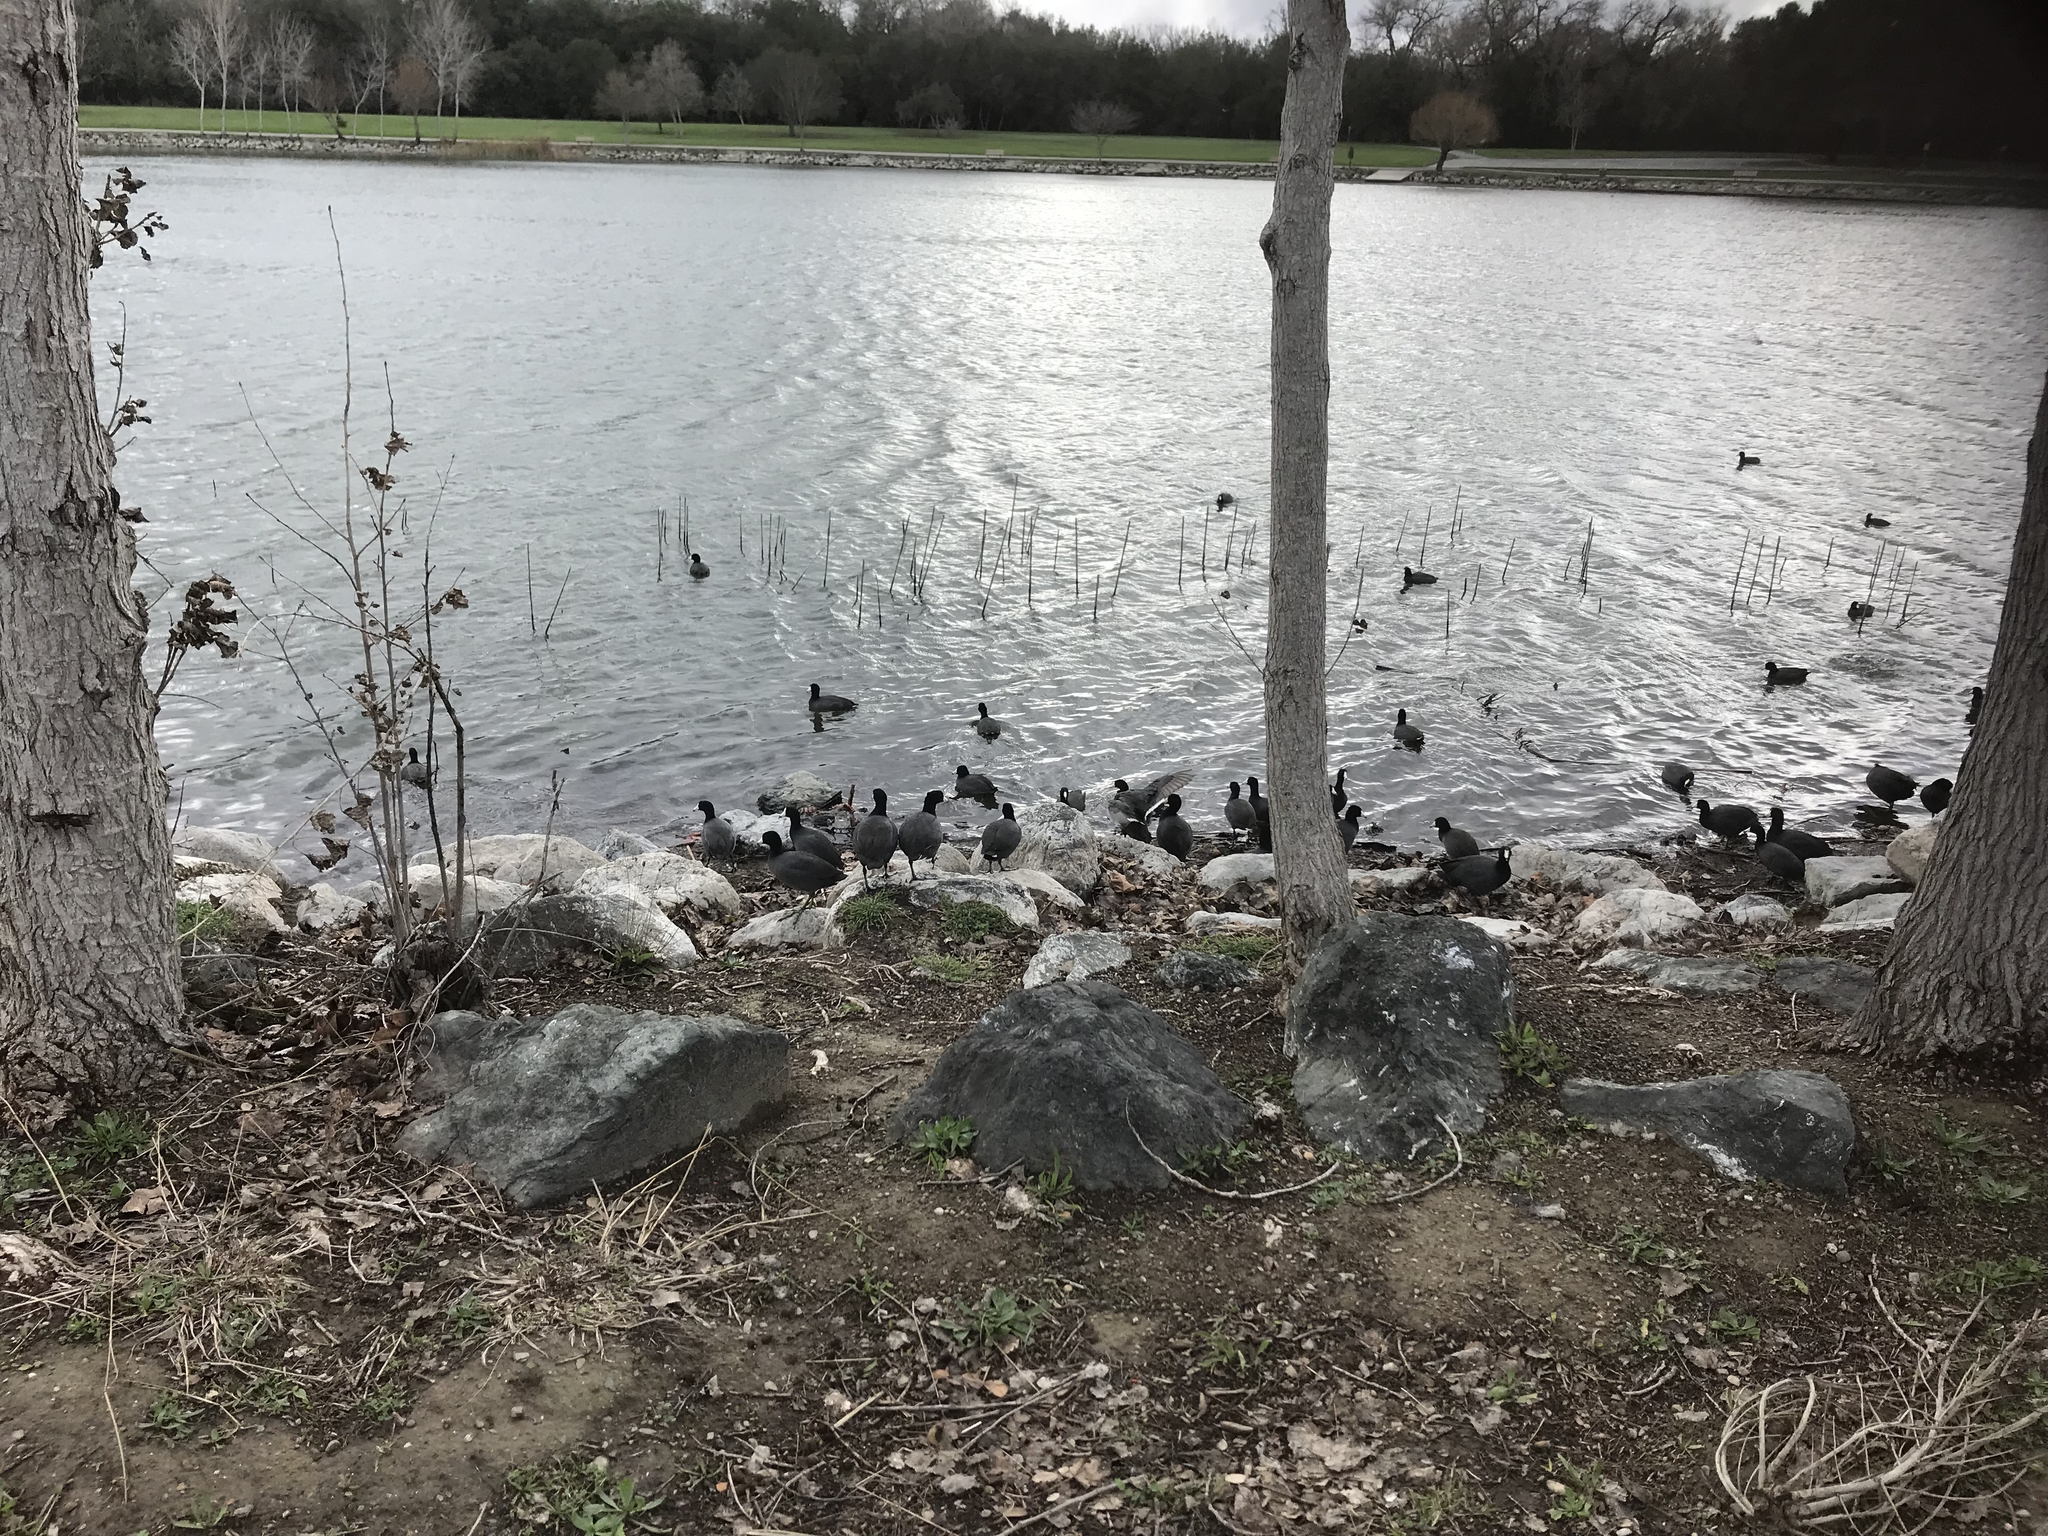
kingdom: Animalia
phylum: Chordata
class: Aves
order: Gruiformes
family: Rallidae
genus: Fulica
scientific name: Fulica americana
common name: American coot
